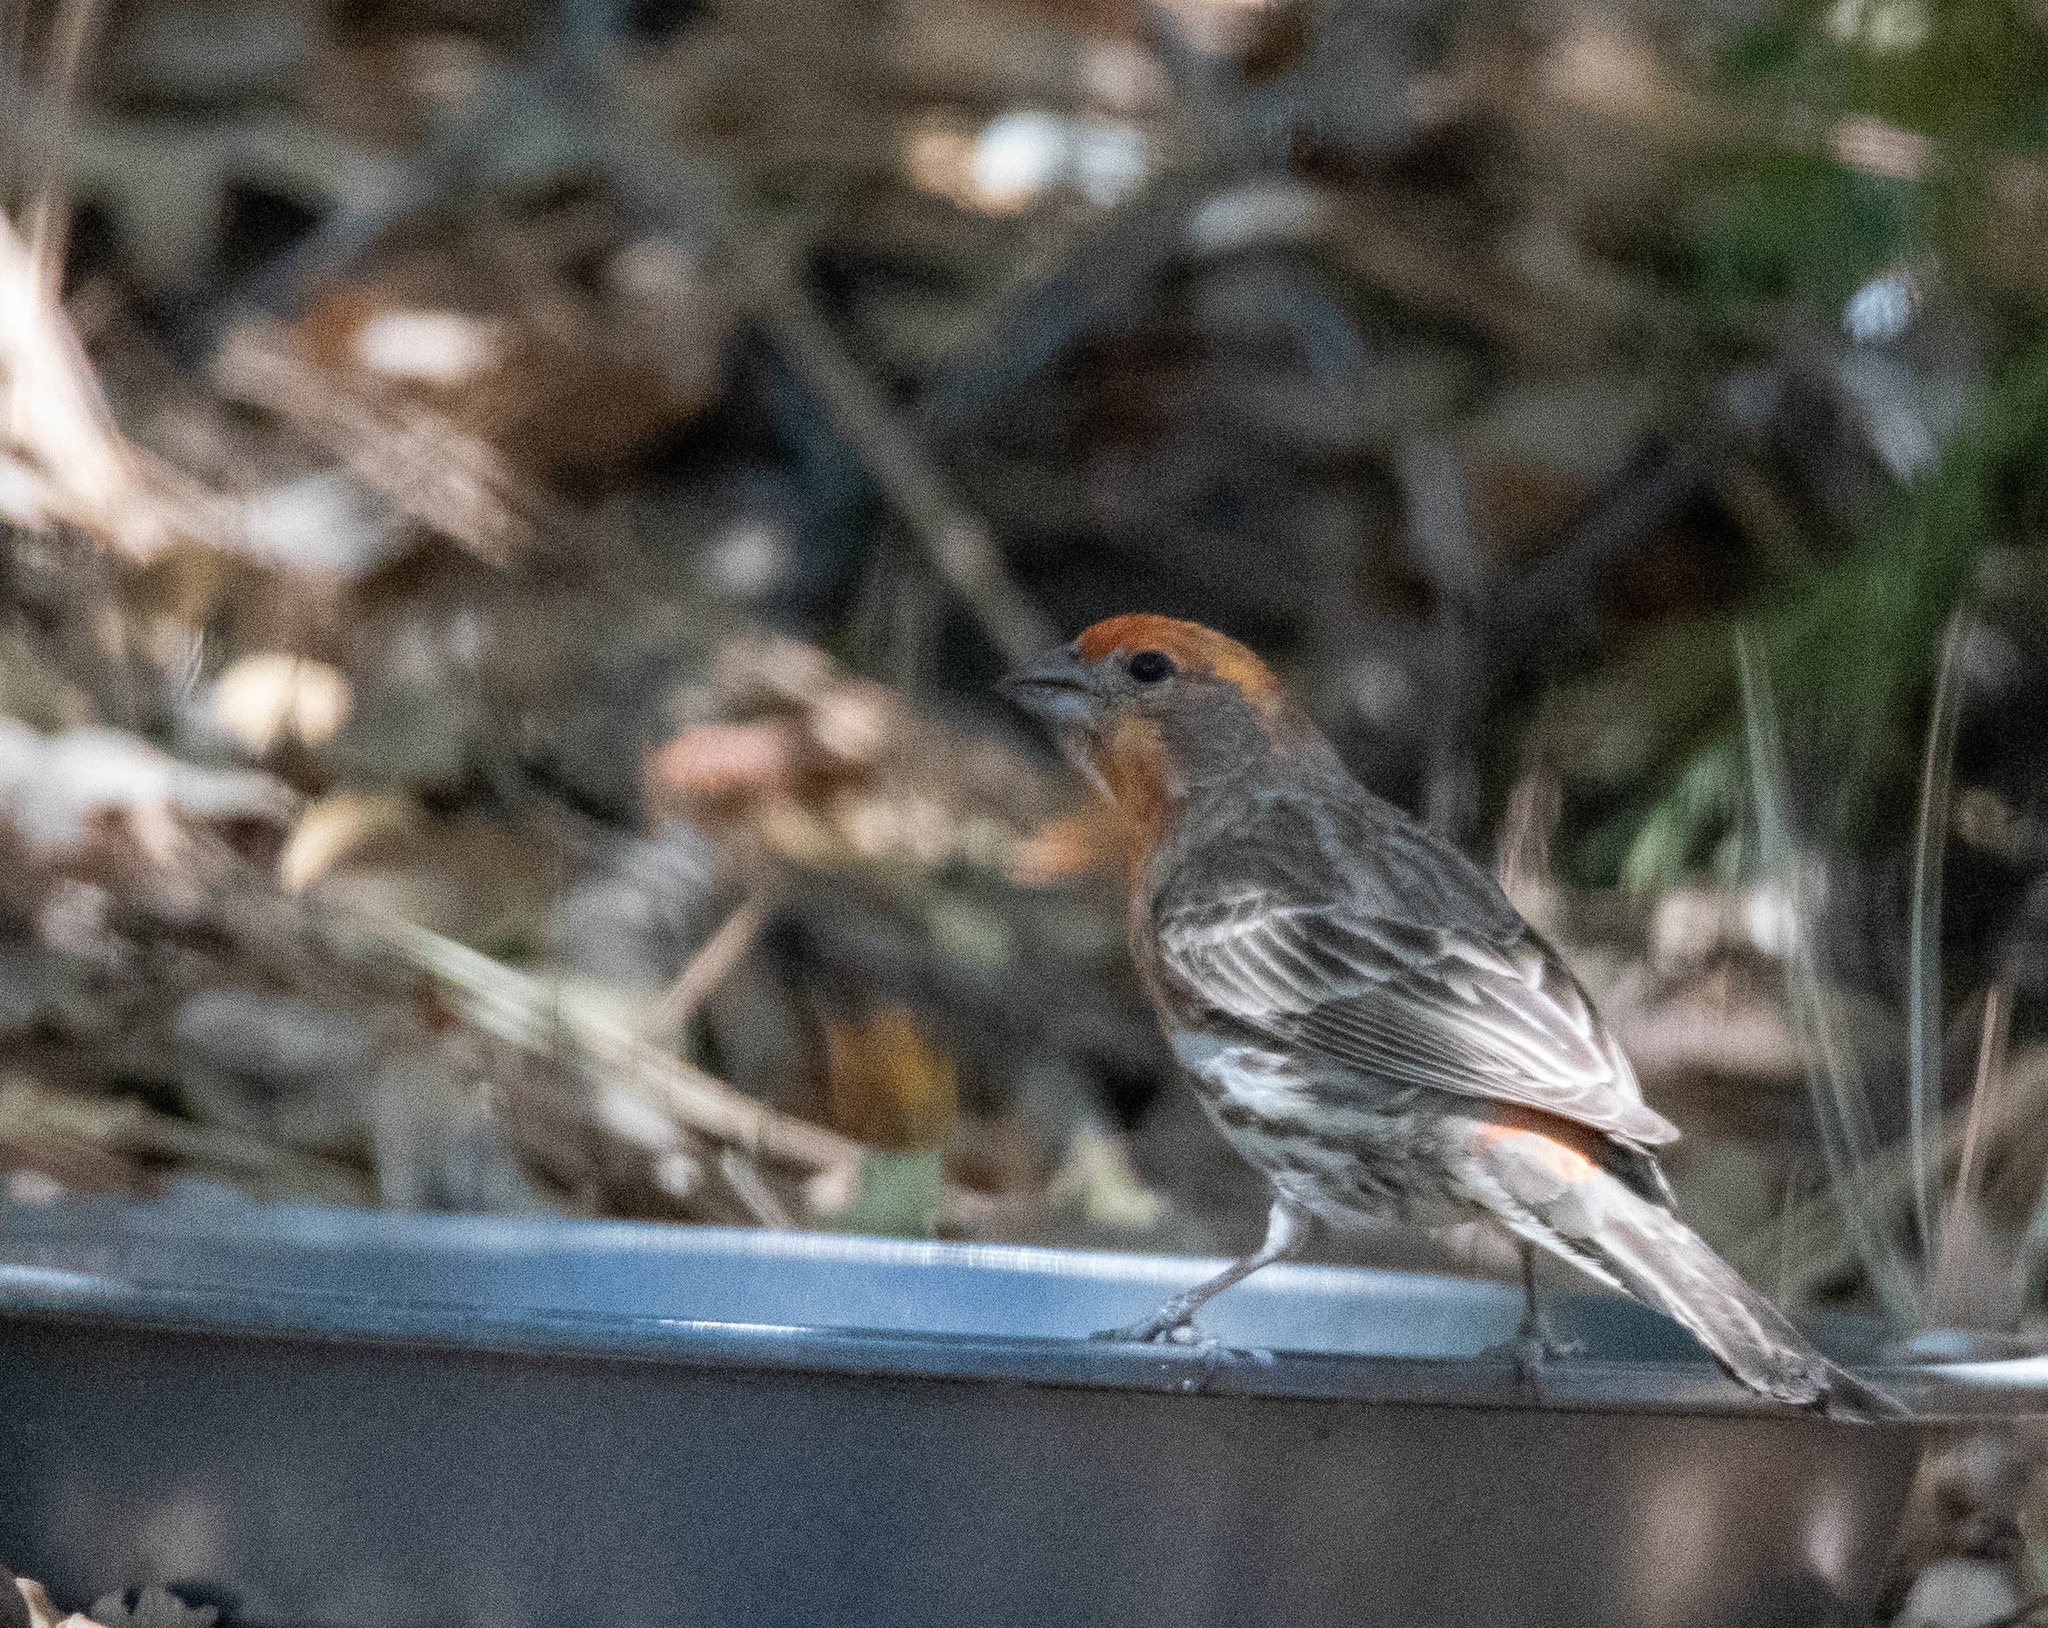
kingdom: Animalia
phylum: Chordata
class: Aves
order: Passeriformes
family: Fringillidae
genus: Haemorhous
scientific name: Haemorhous mexicanus
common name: House finch
